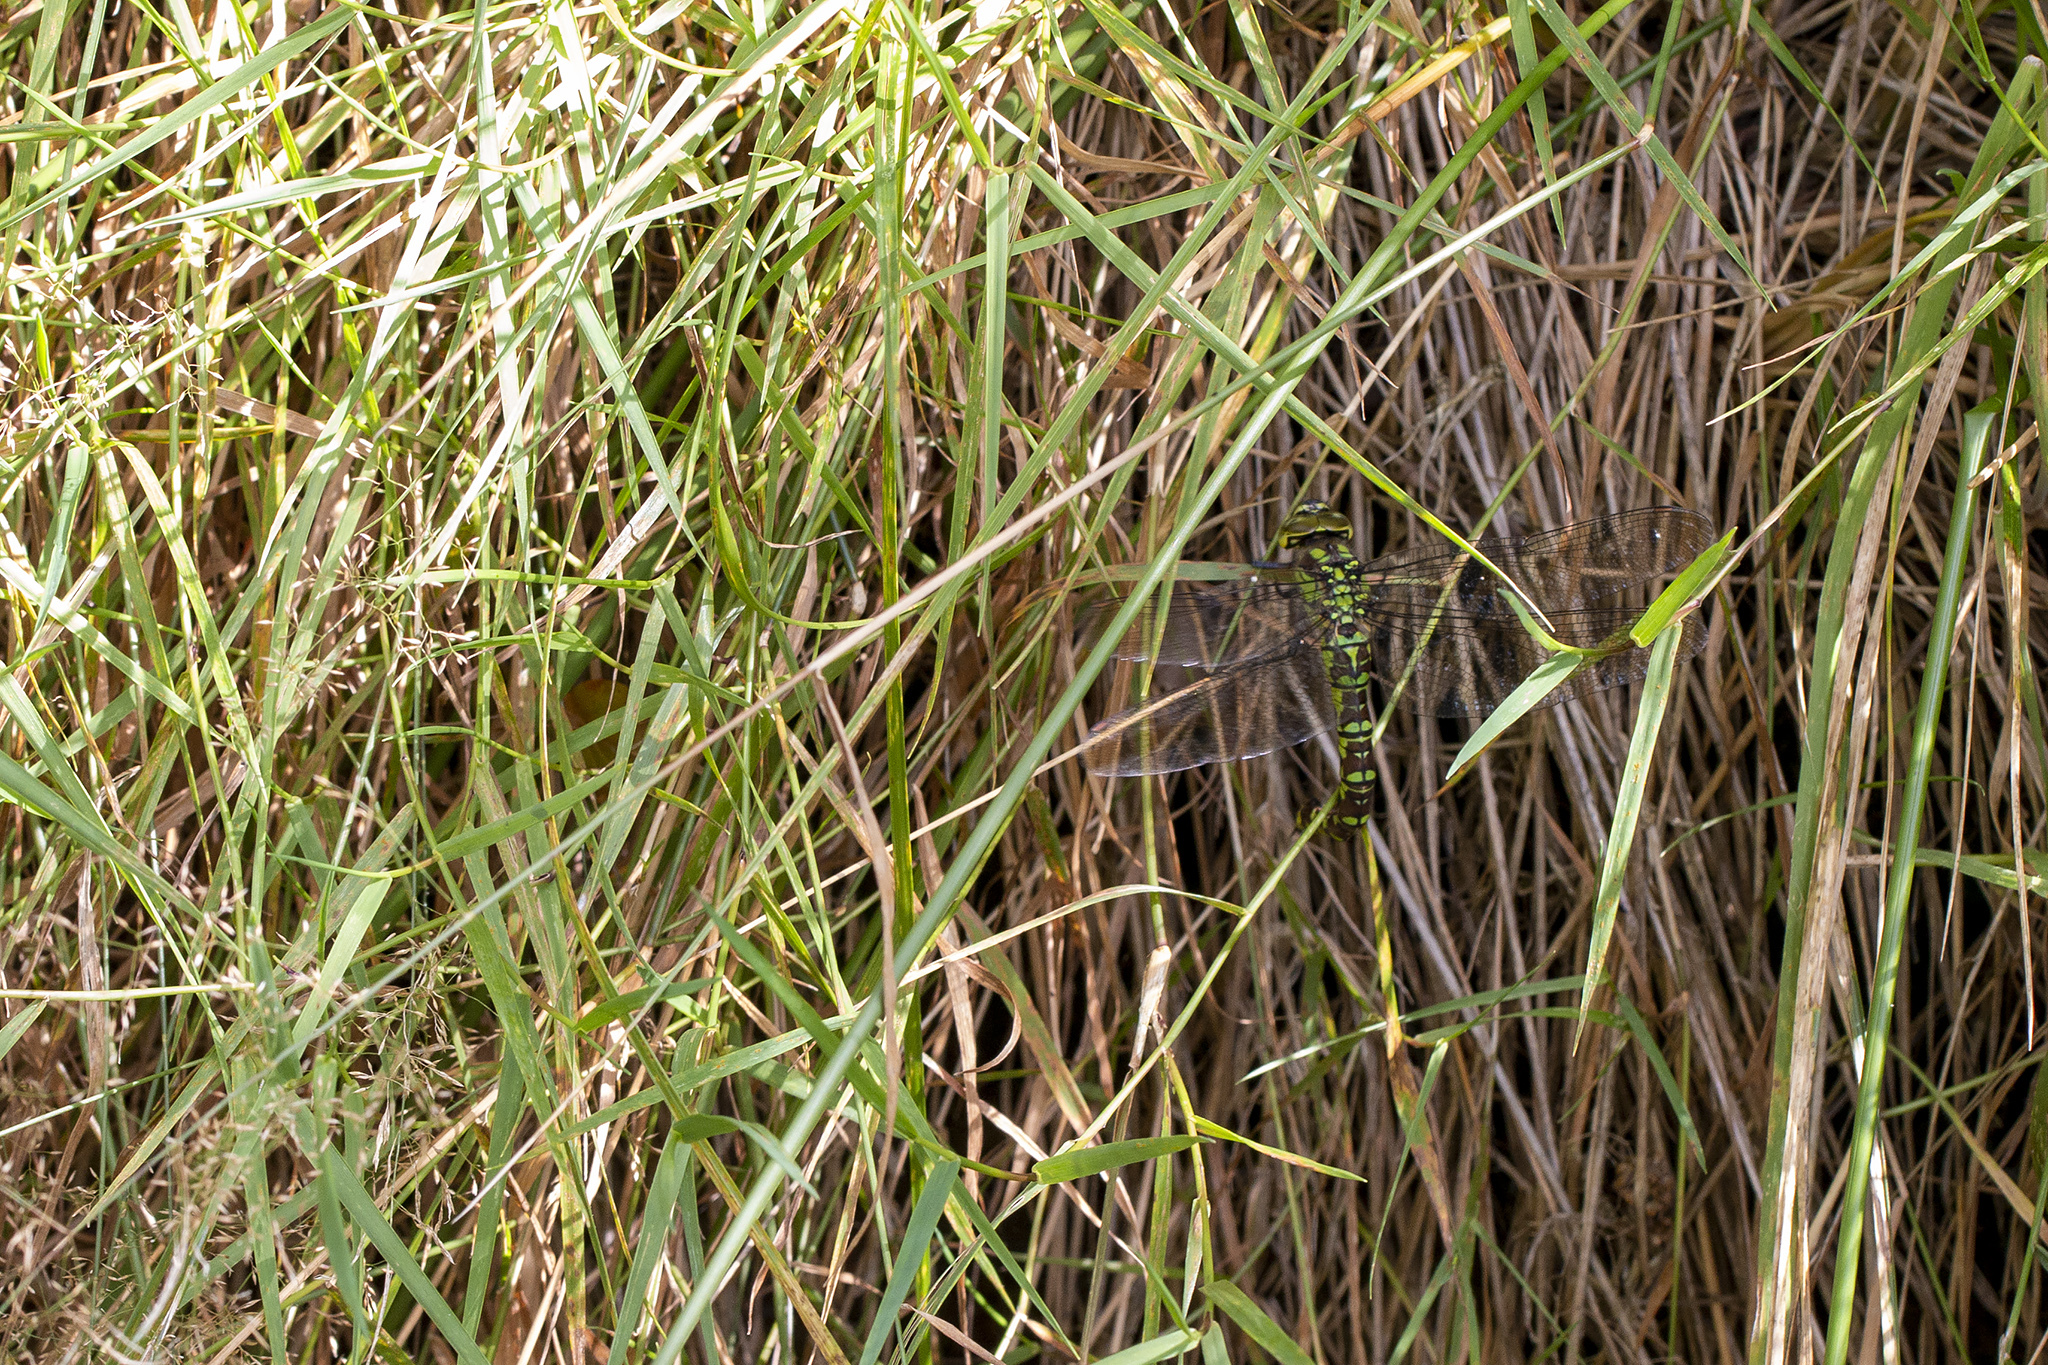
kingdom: Animalia
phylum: Arthropoda
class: Insecta
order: Odonata
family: Aeshnidae
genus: Aeshna
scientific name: Aeshna cyanea
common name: Southern hawker
